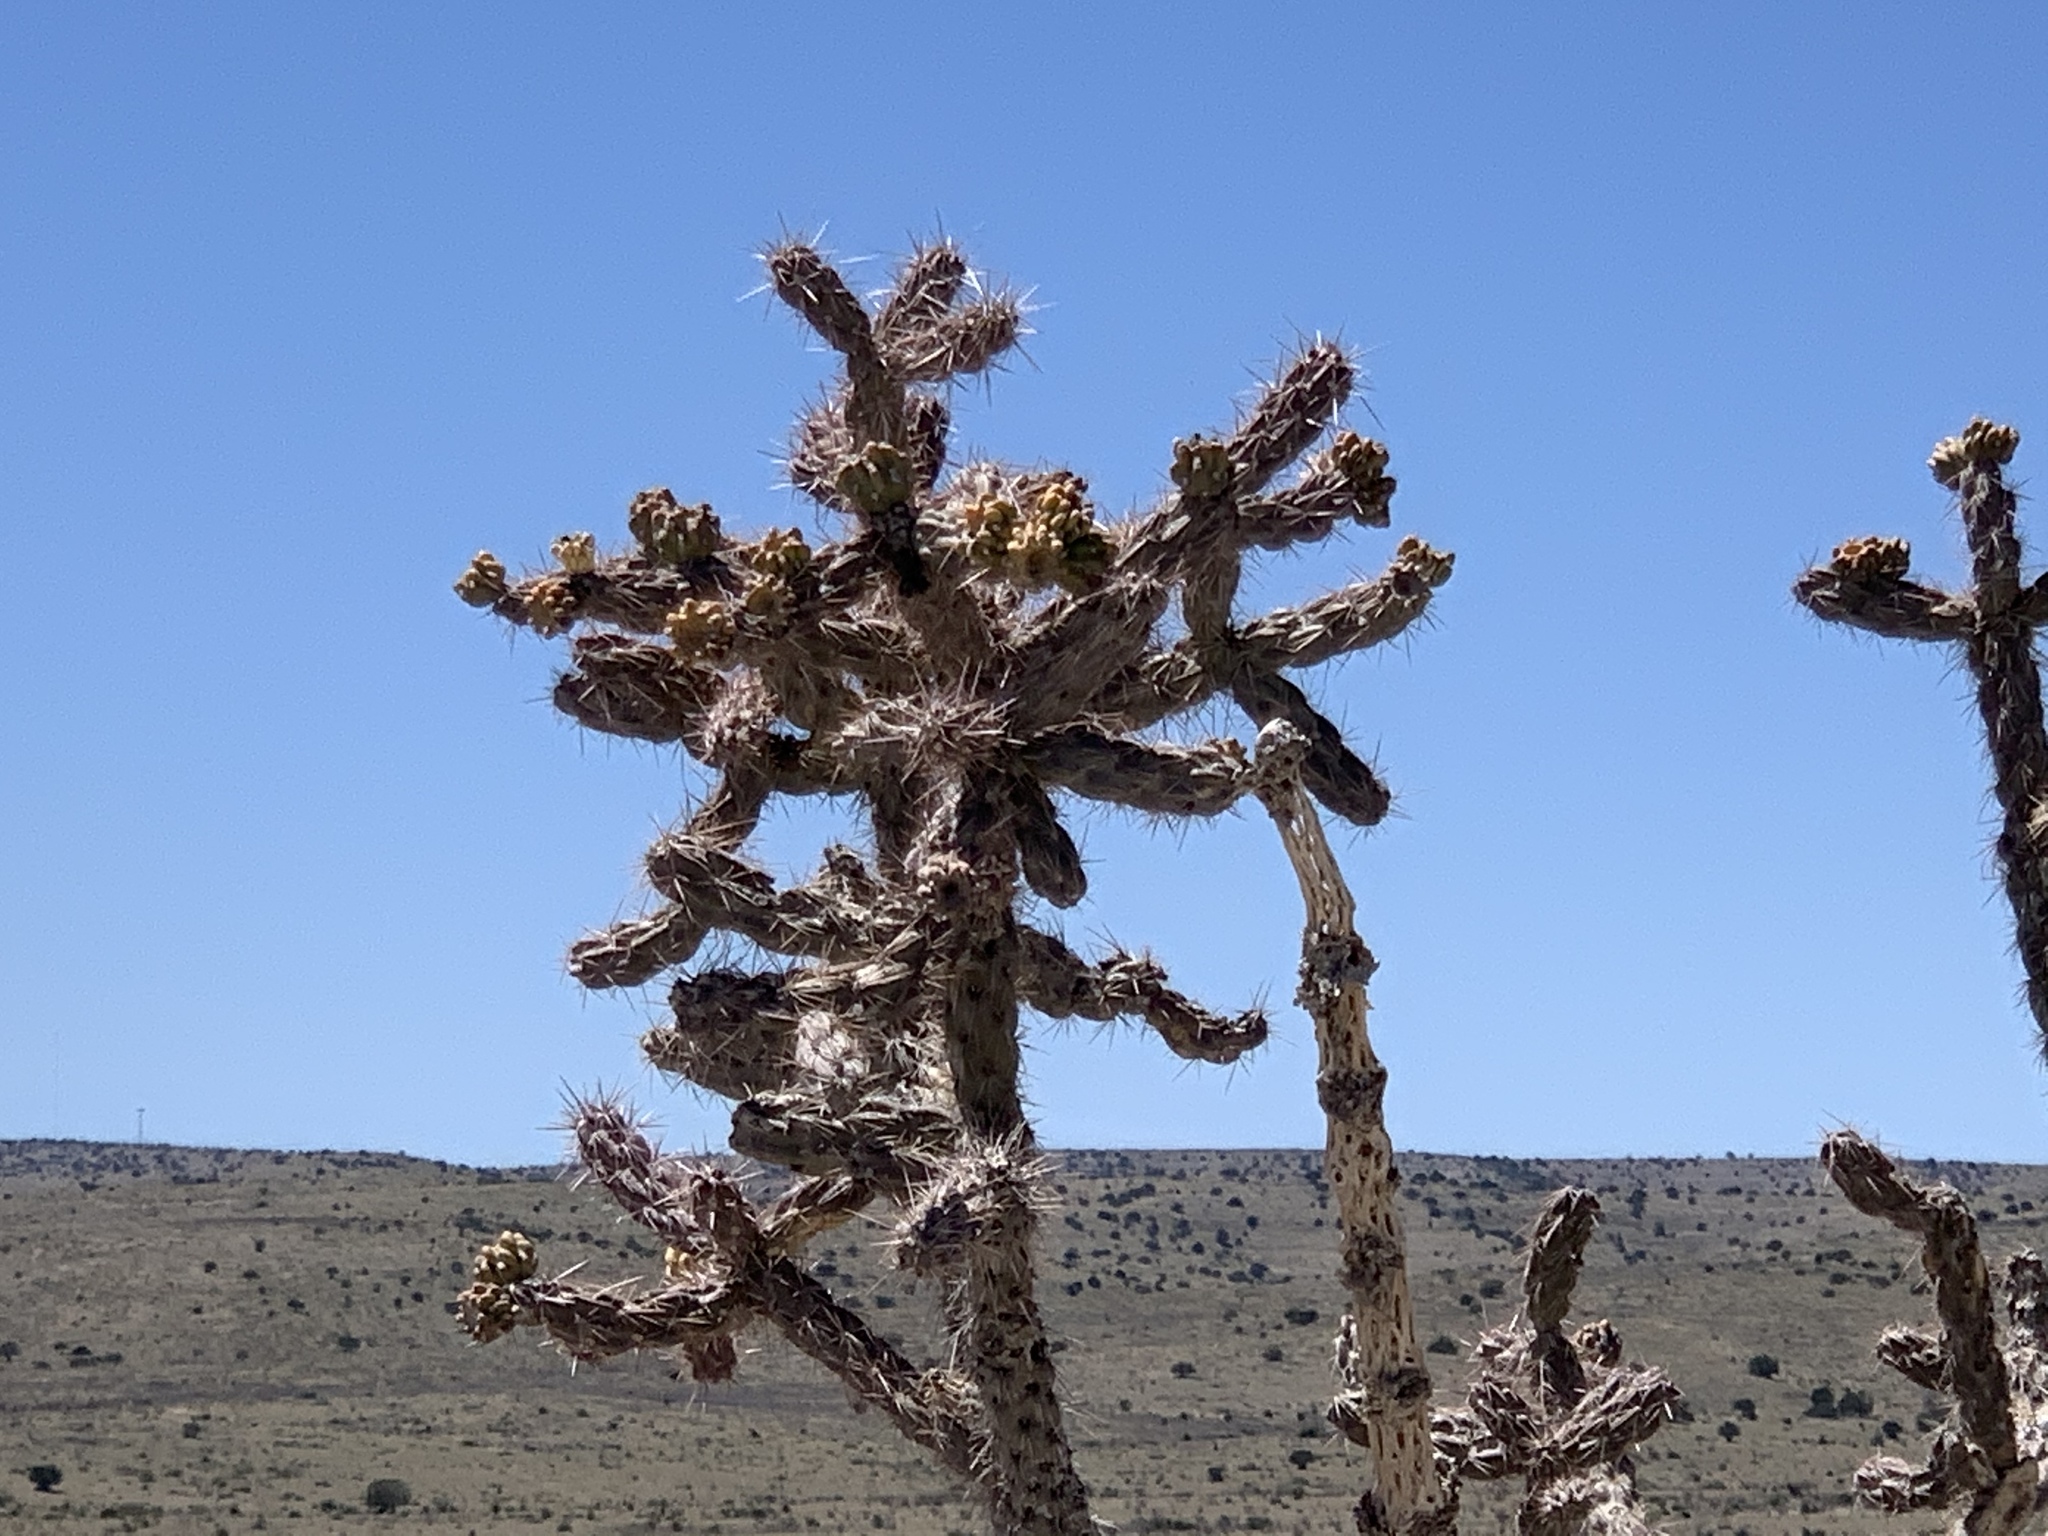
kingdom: Plantae
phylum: Tracheophyta
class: Magnoliopsida
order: Caryophyllales
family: Cactaceae
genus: Cylindropuntia
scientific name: Cylindropuntia imbricata
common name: Candelabrum cactus
